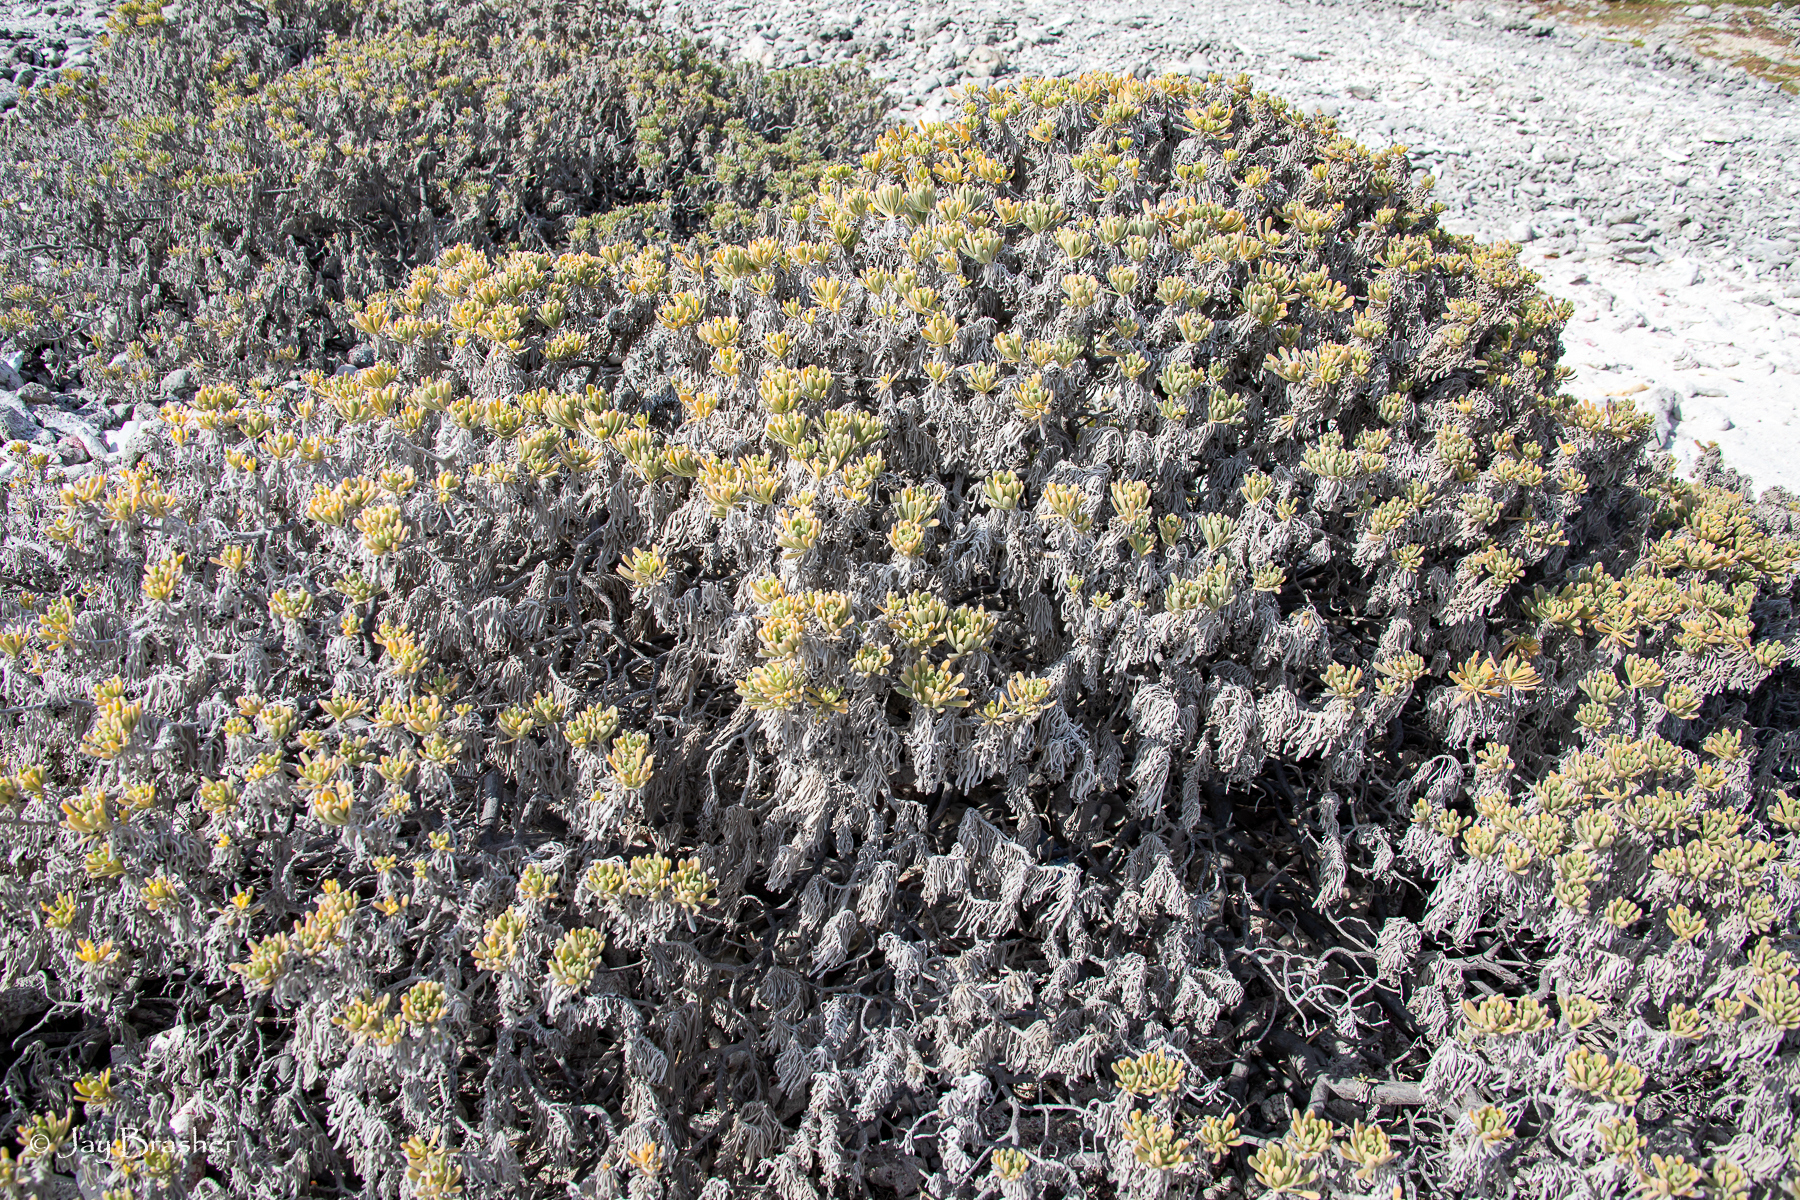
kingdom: Plantae
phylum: Tracheophyta
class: Magnoliopsida
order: Boraginales
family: Heliotropiaceae
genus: Tournefortia
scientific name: Tournefortia gnaphalodes
